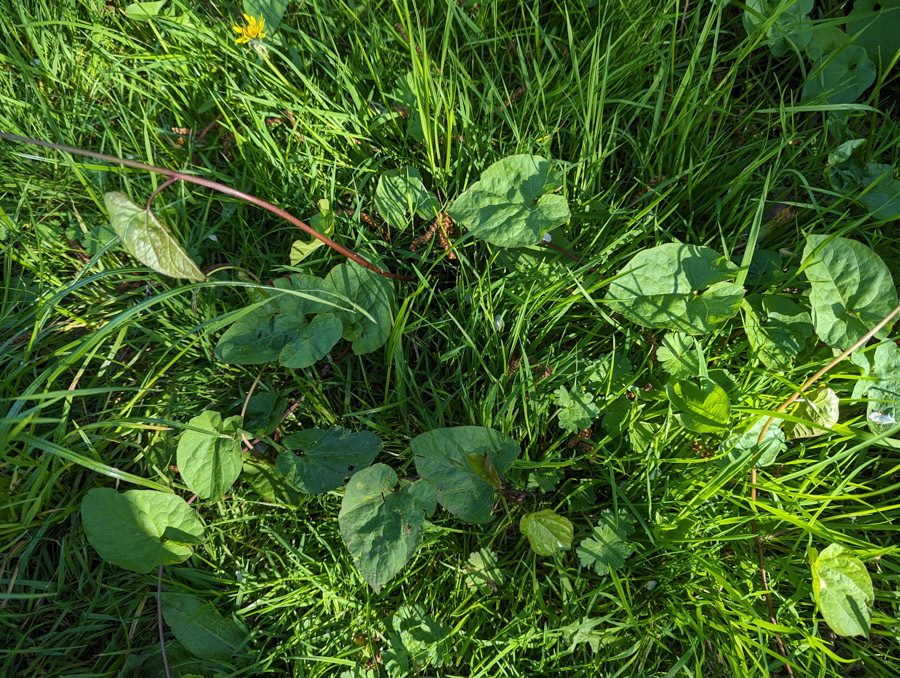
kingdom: Plantae
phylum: Tracheophyta
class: Magnoliopsida
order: Solanales
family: Convolvulaceae
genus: Calystegia
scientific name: Calystegia
